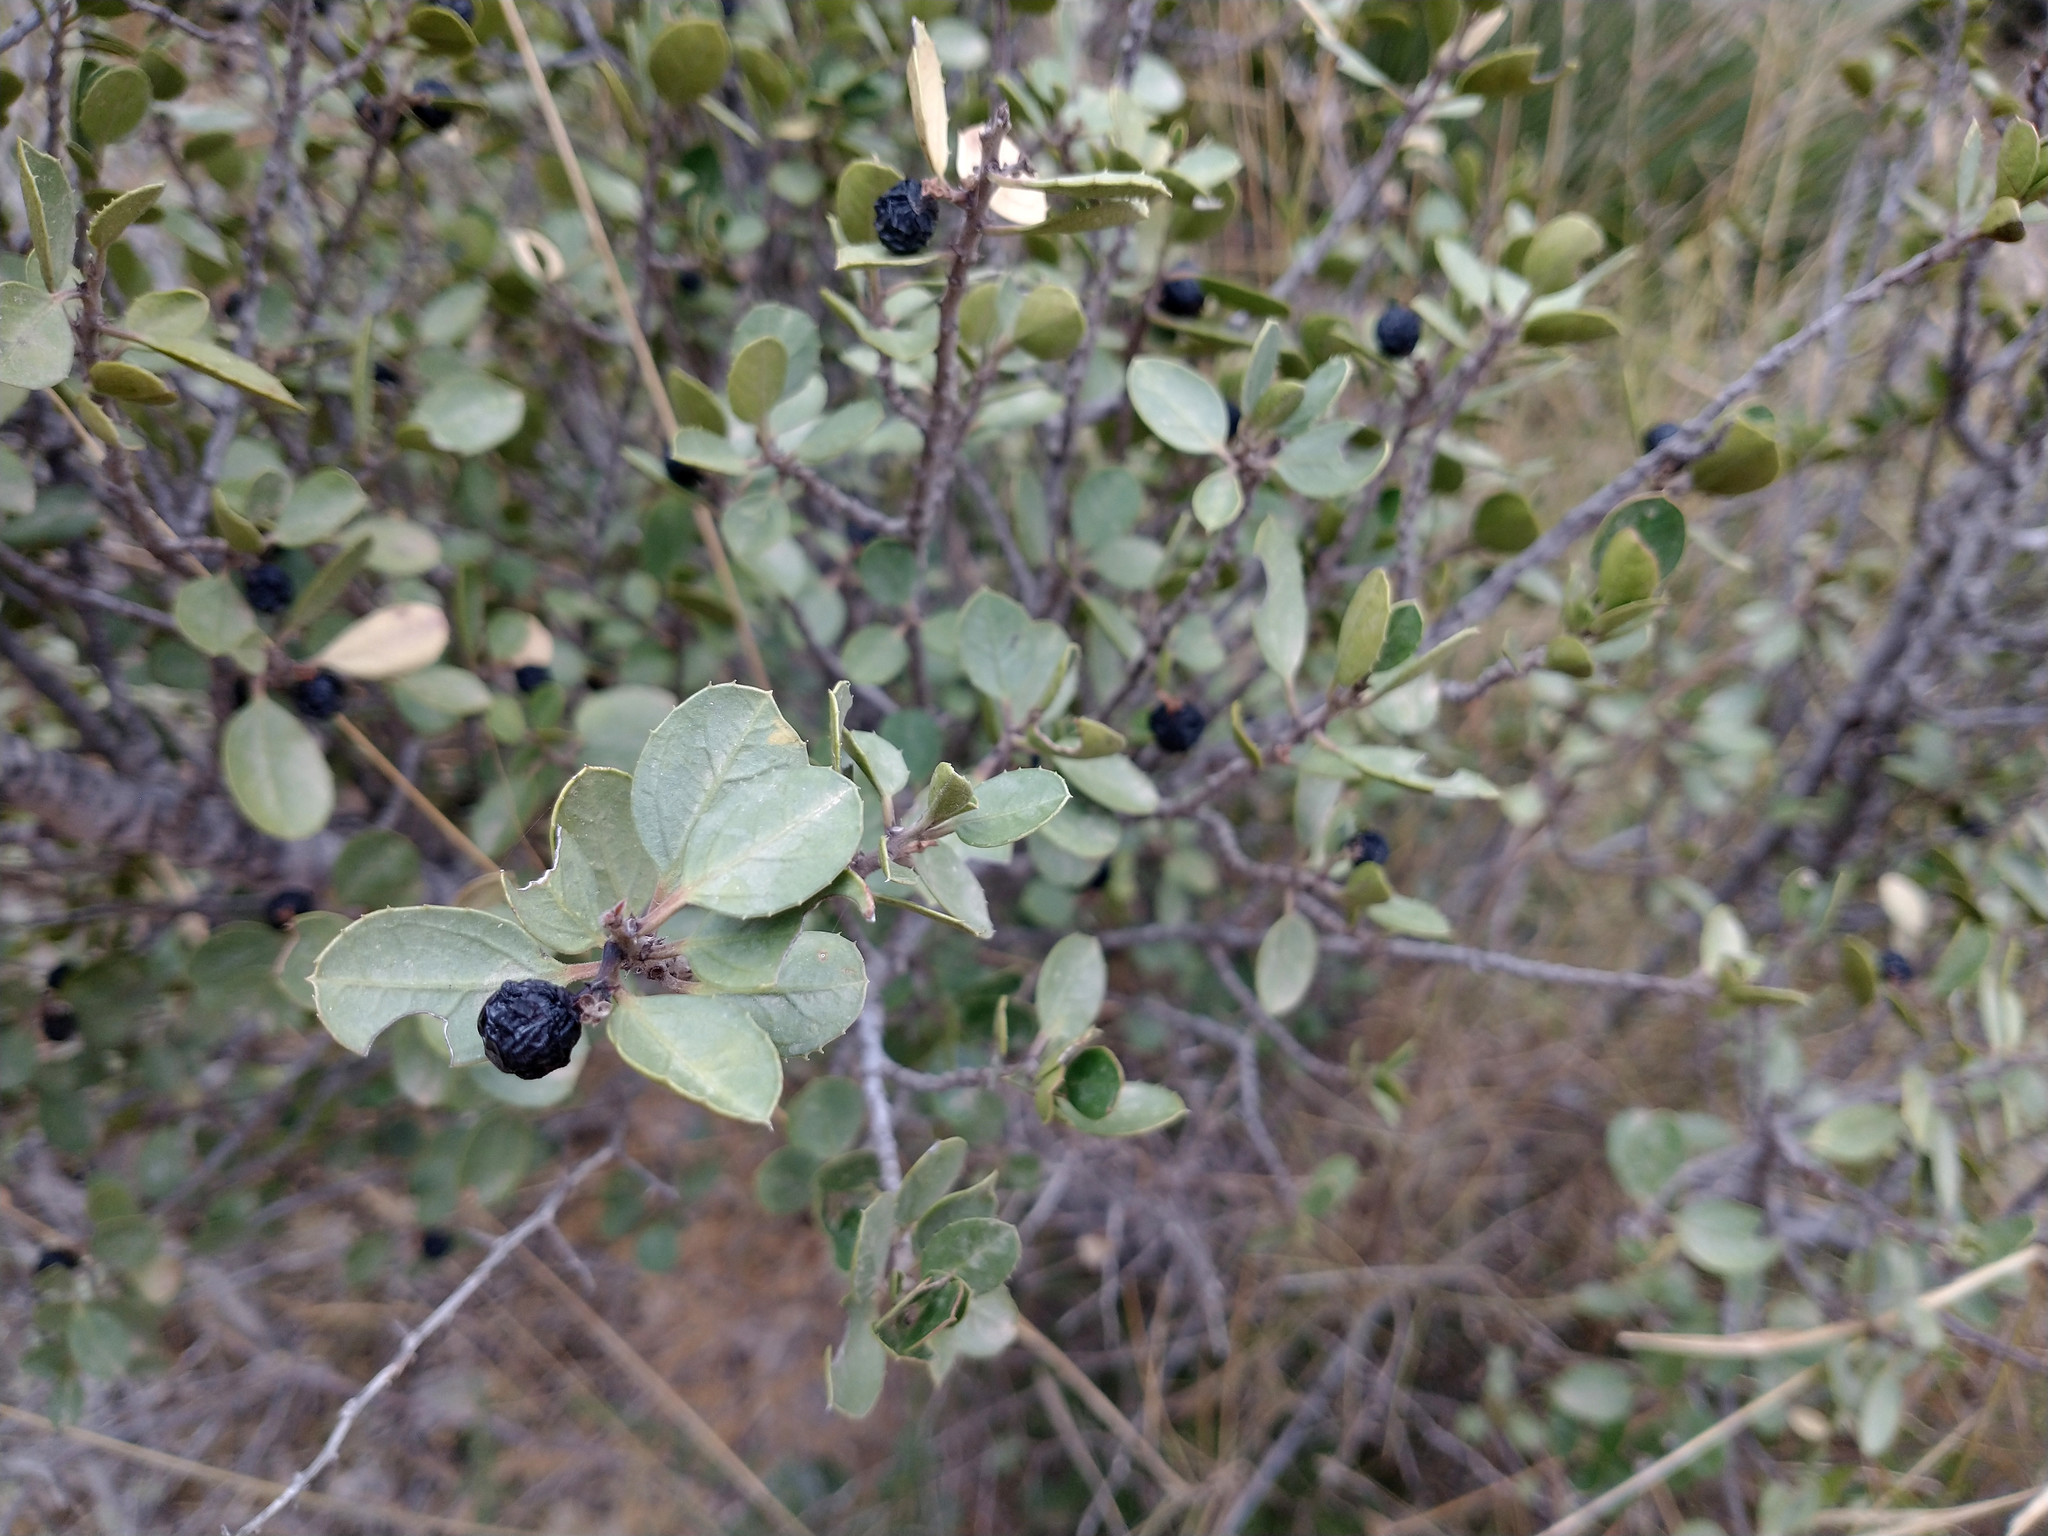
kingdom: Plantae
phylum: Tracheophyta
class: Magnoliopsida
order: Rosales
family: Rhamnaceae
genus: Rhamnus
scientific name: Rhamnus alaternus
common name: Mediterranean buckthorn
